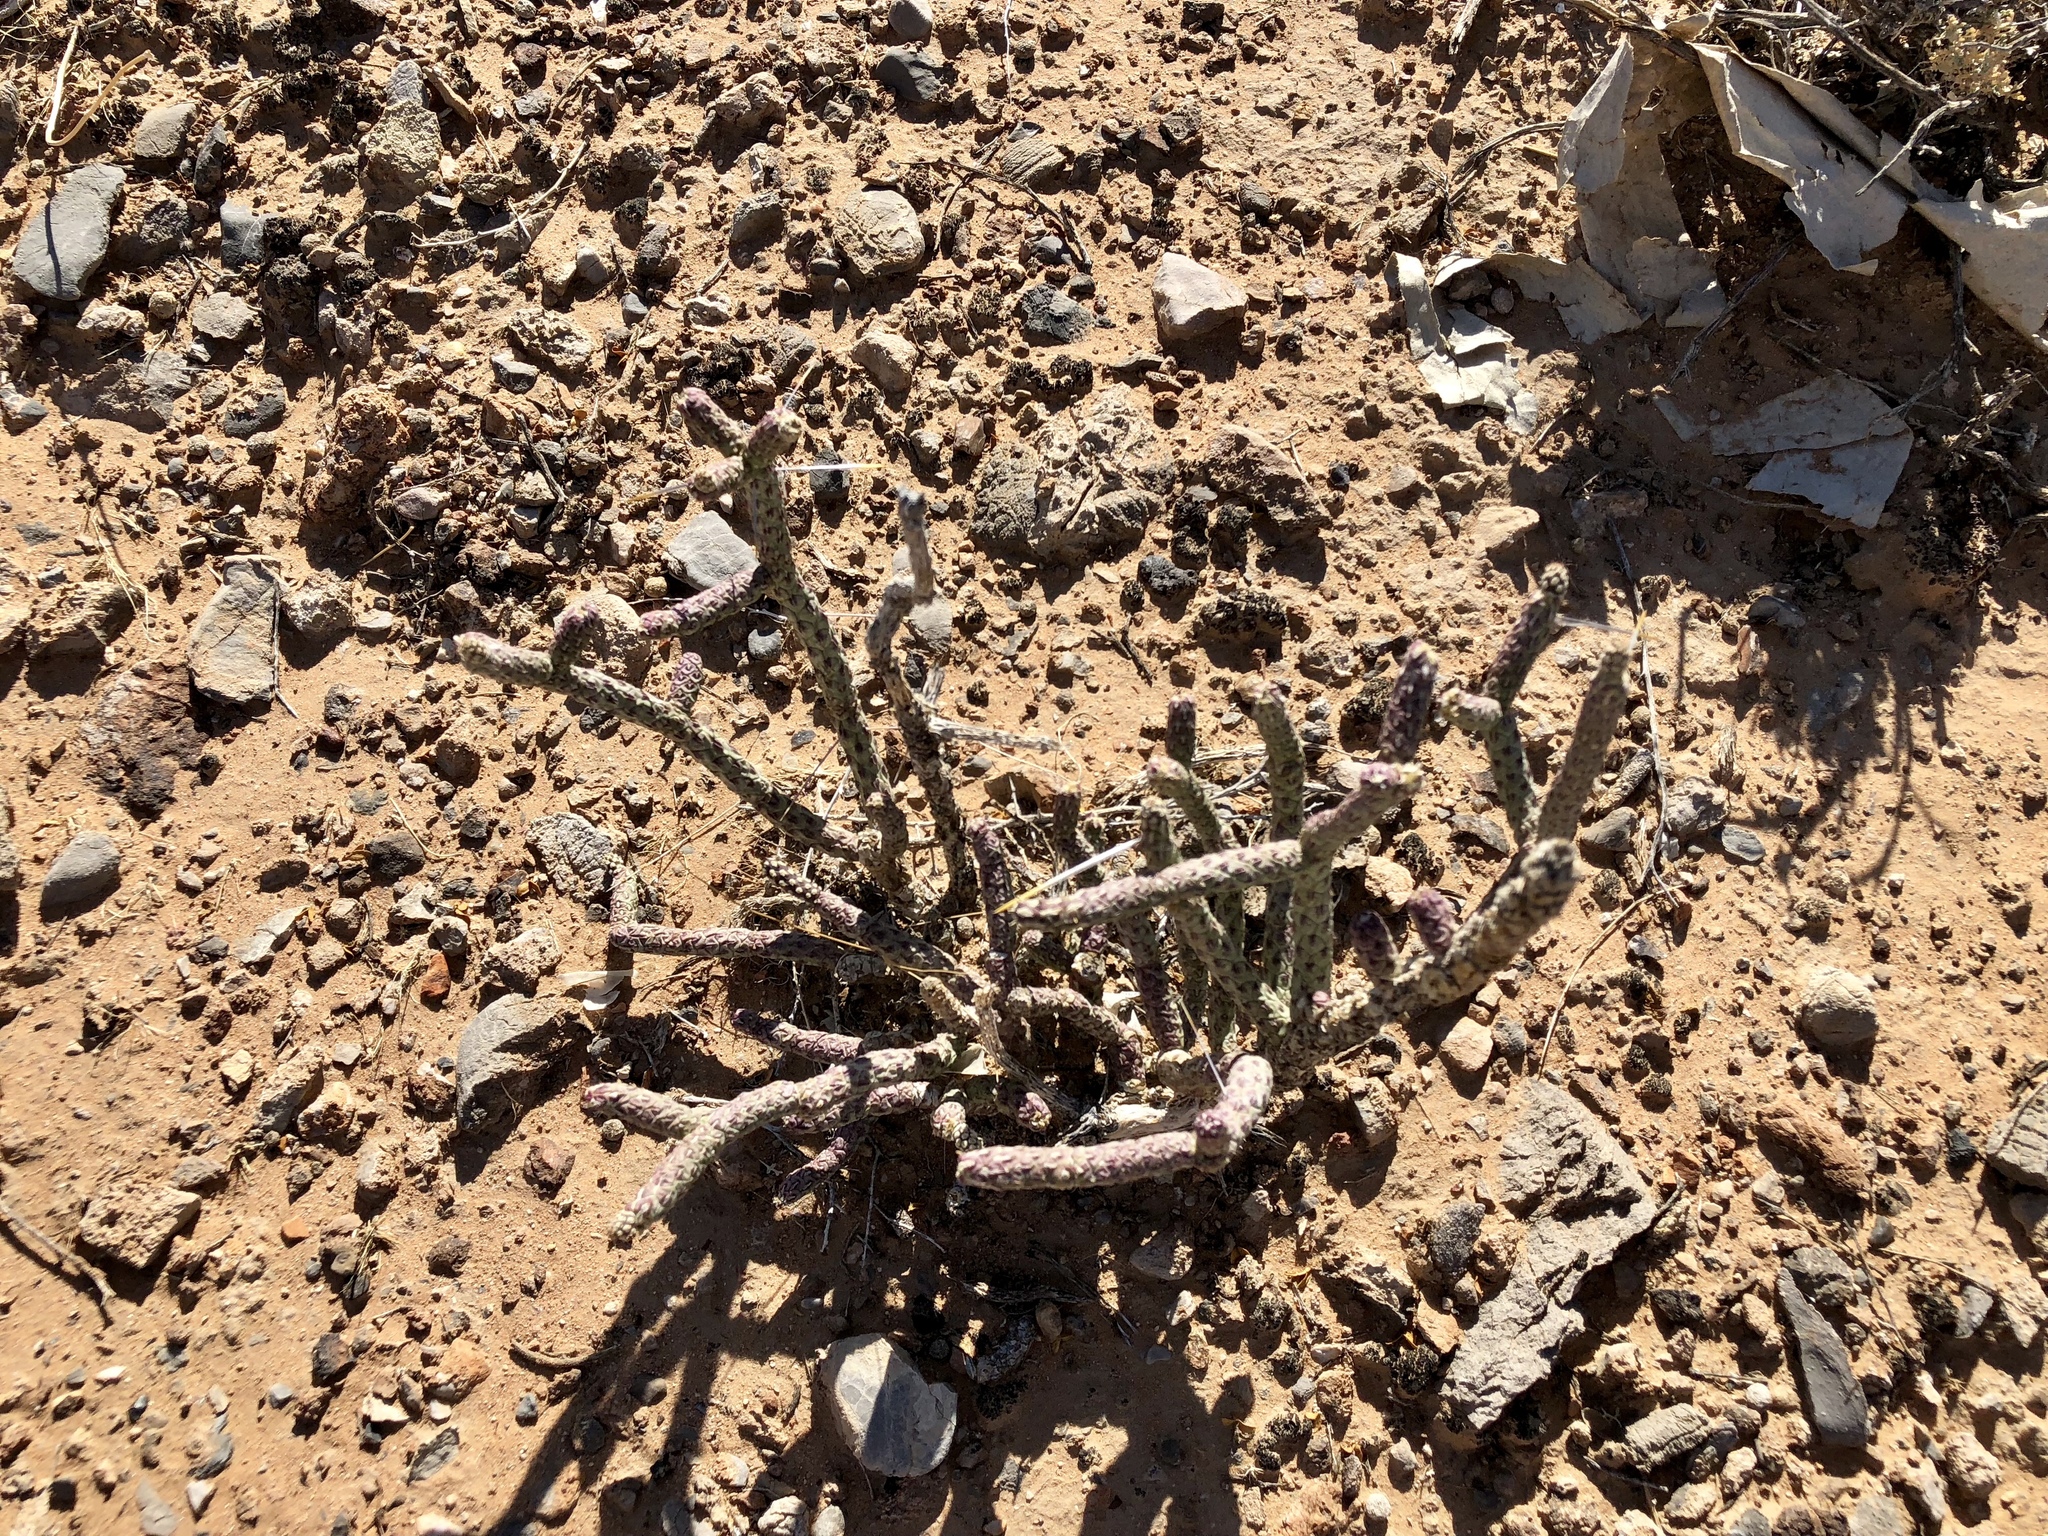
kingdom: Plantae
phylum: Tracheophyta
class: Magnoliopsida
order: Caryophyllales
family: Cactaceae
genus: Cylindropuntia
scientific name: Cylindropuntia ramosissima
